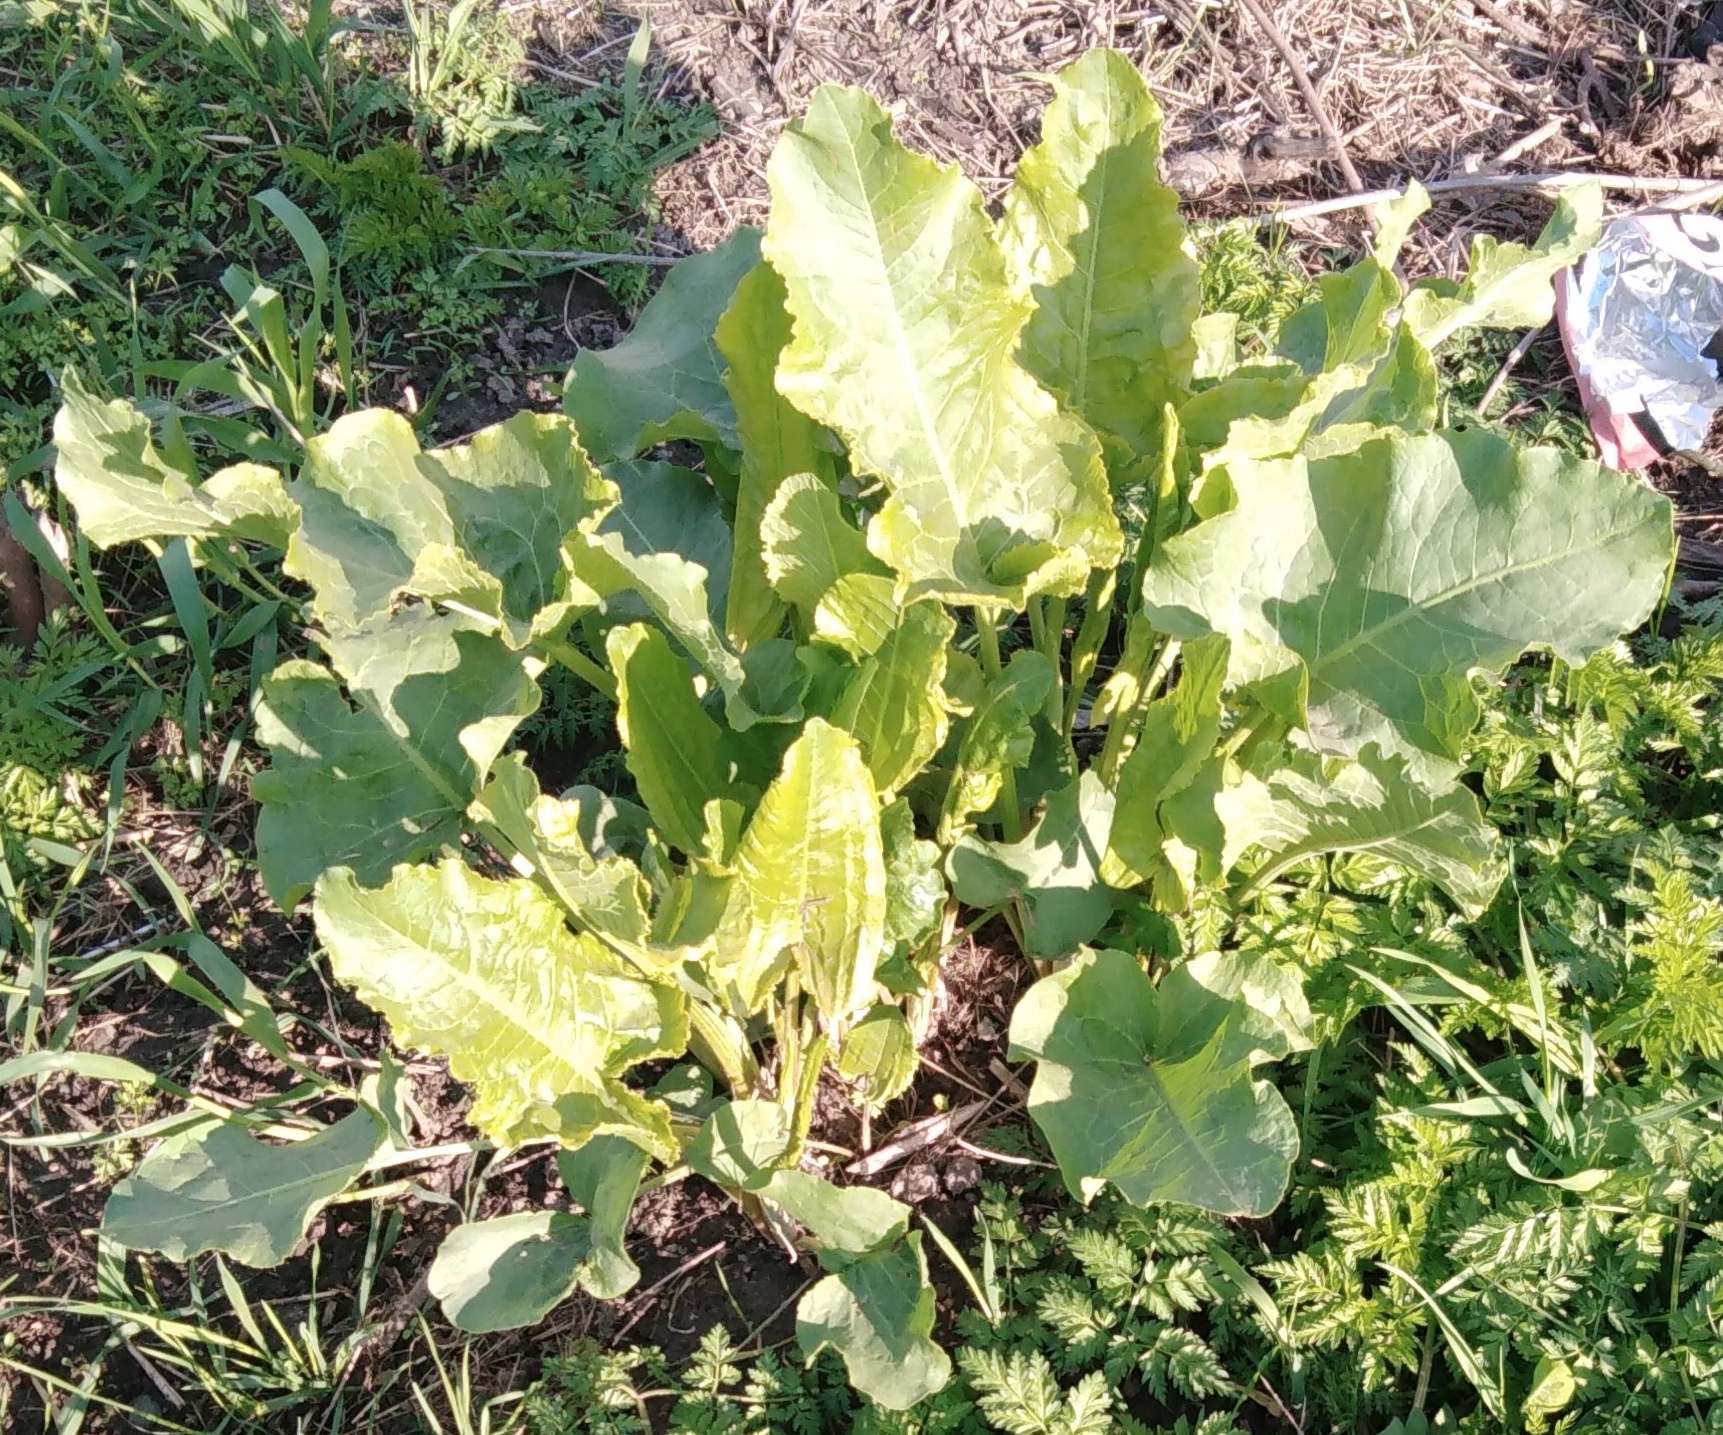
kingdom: Plantae
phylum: Tracheophyta
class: Magnoliopsida
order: Caryophyllales
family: Polygonaceae
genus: Rumex
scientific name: Rumex confertus
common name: Russian dock
